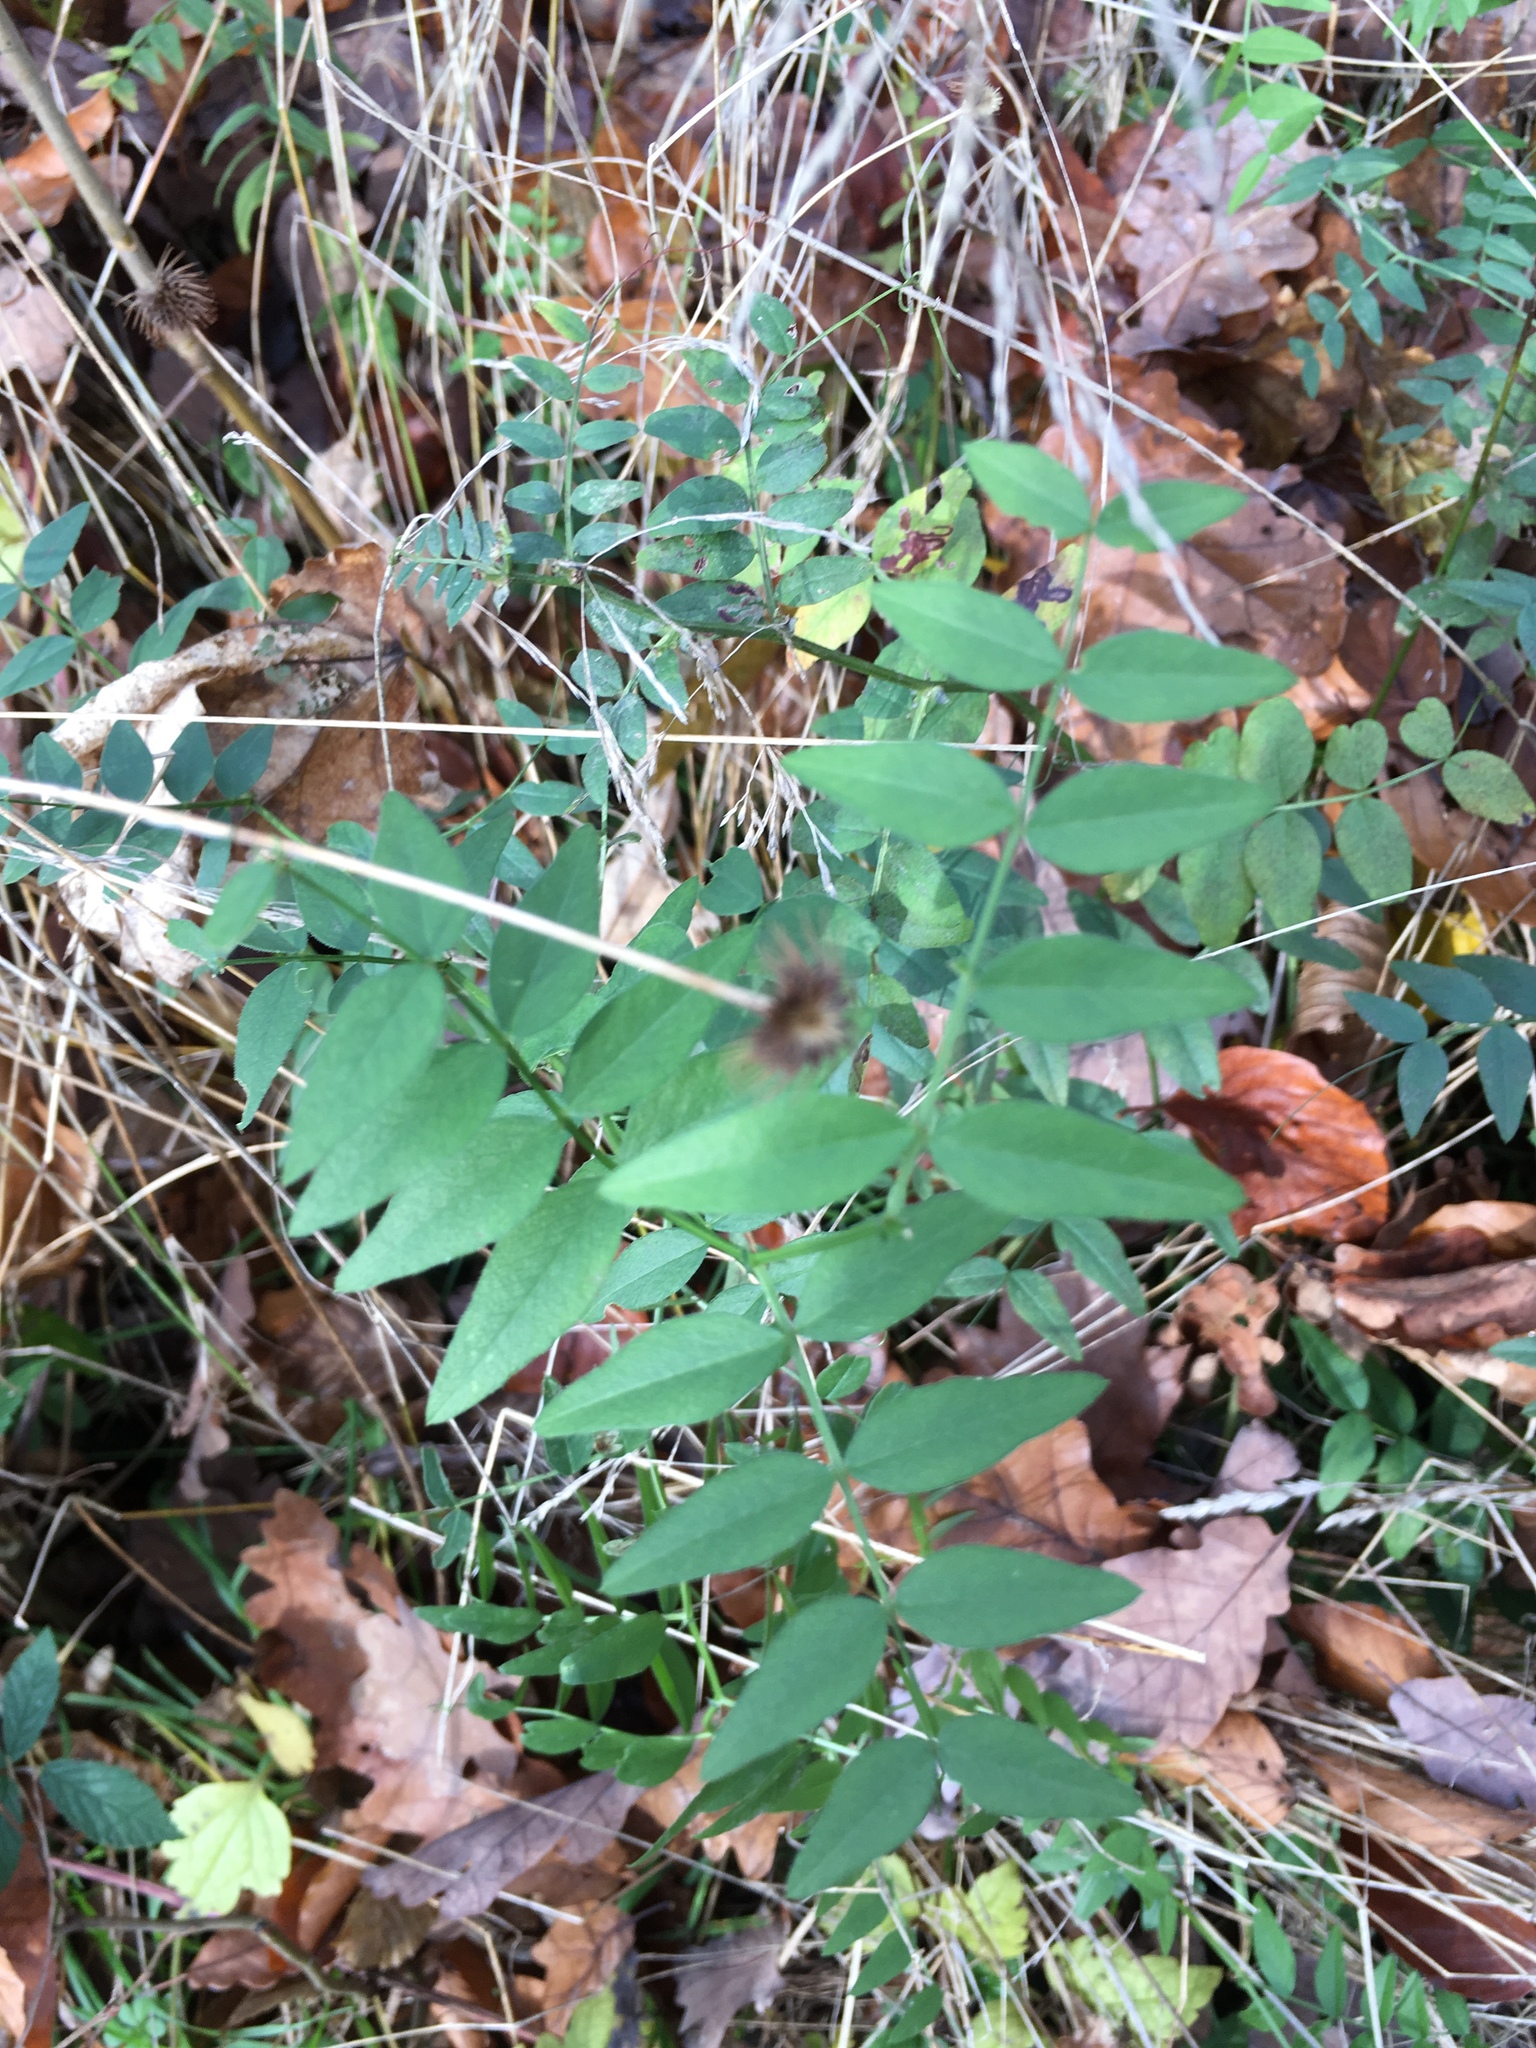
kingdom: Plantae
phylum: Tracheophyta
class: Magnoliopsida
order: Fabales
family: Fabaceae
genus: Vicia
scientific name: Vicia sepium
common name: Bush vetch
